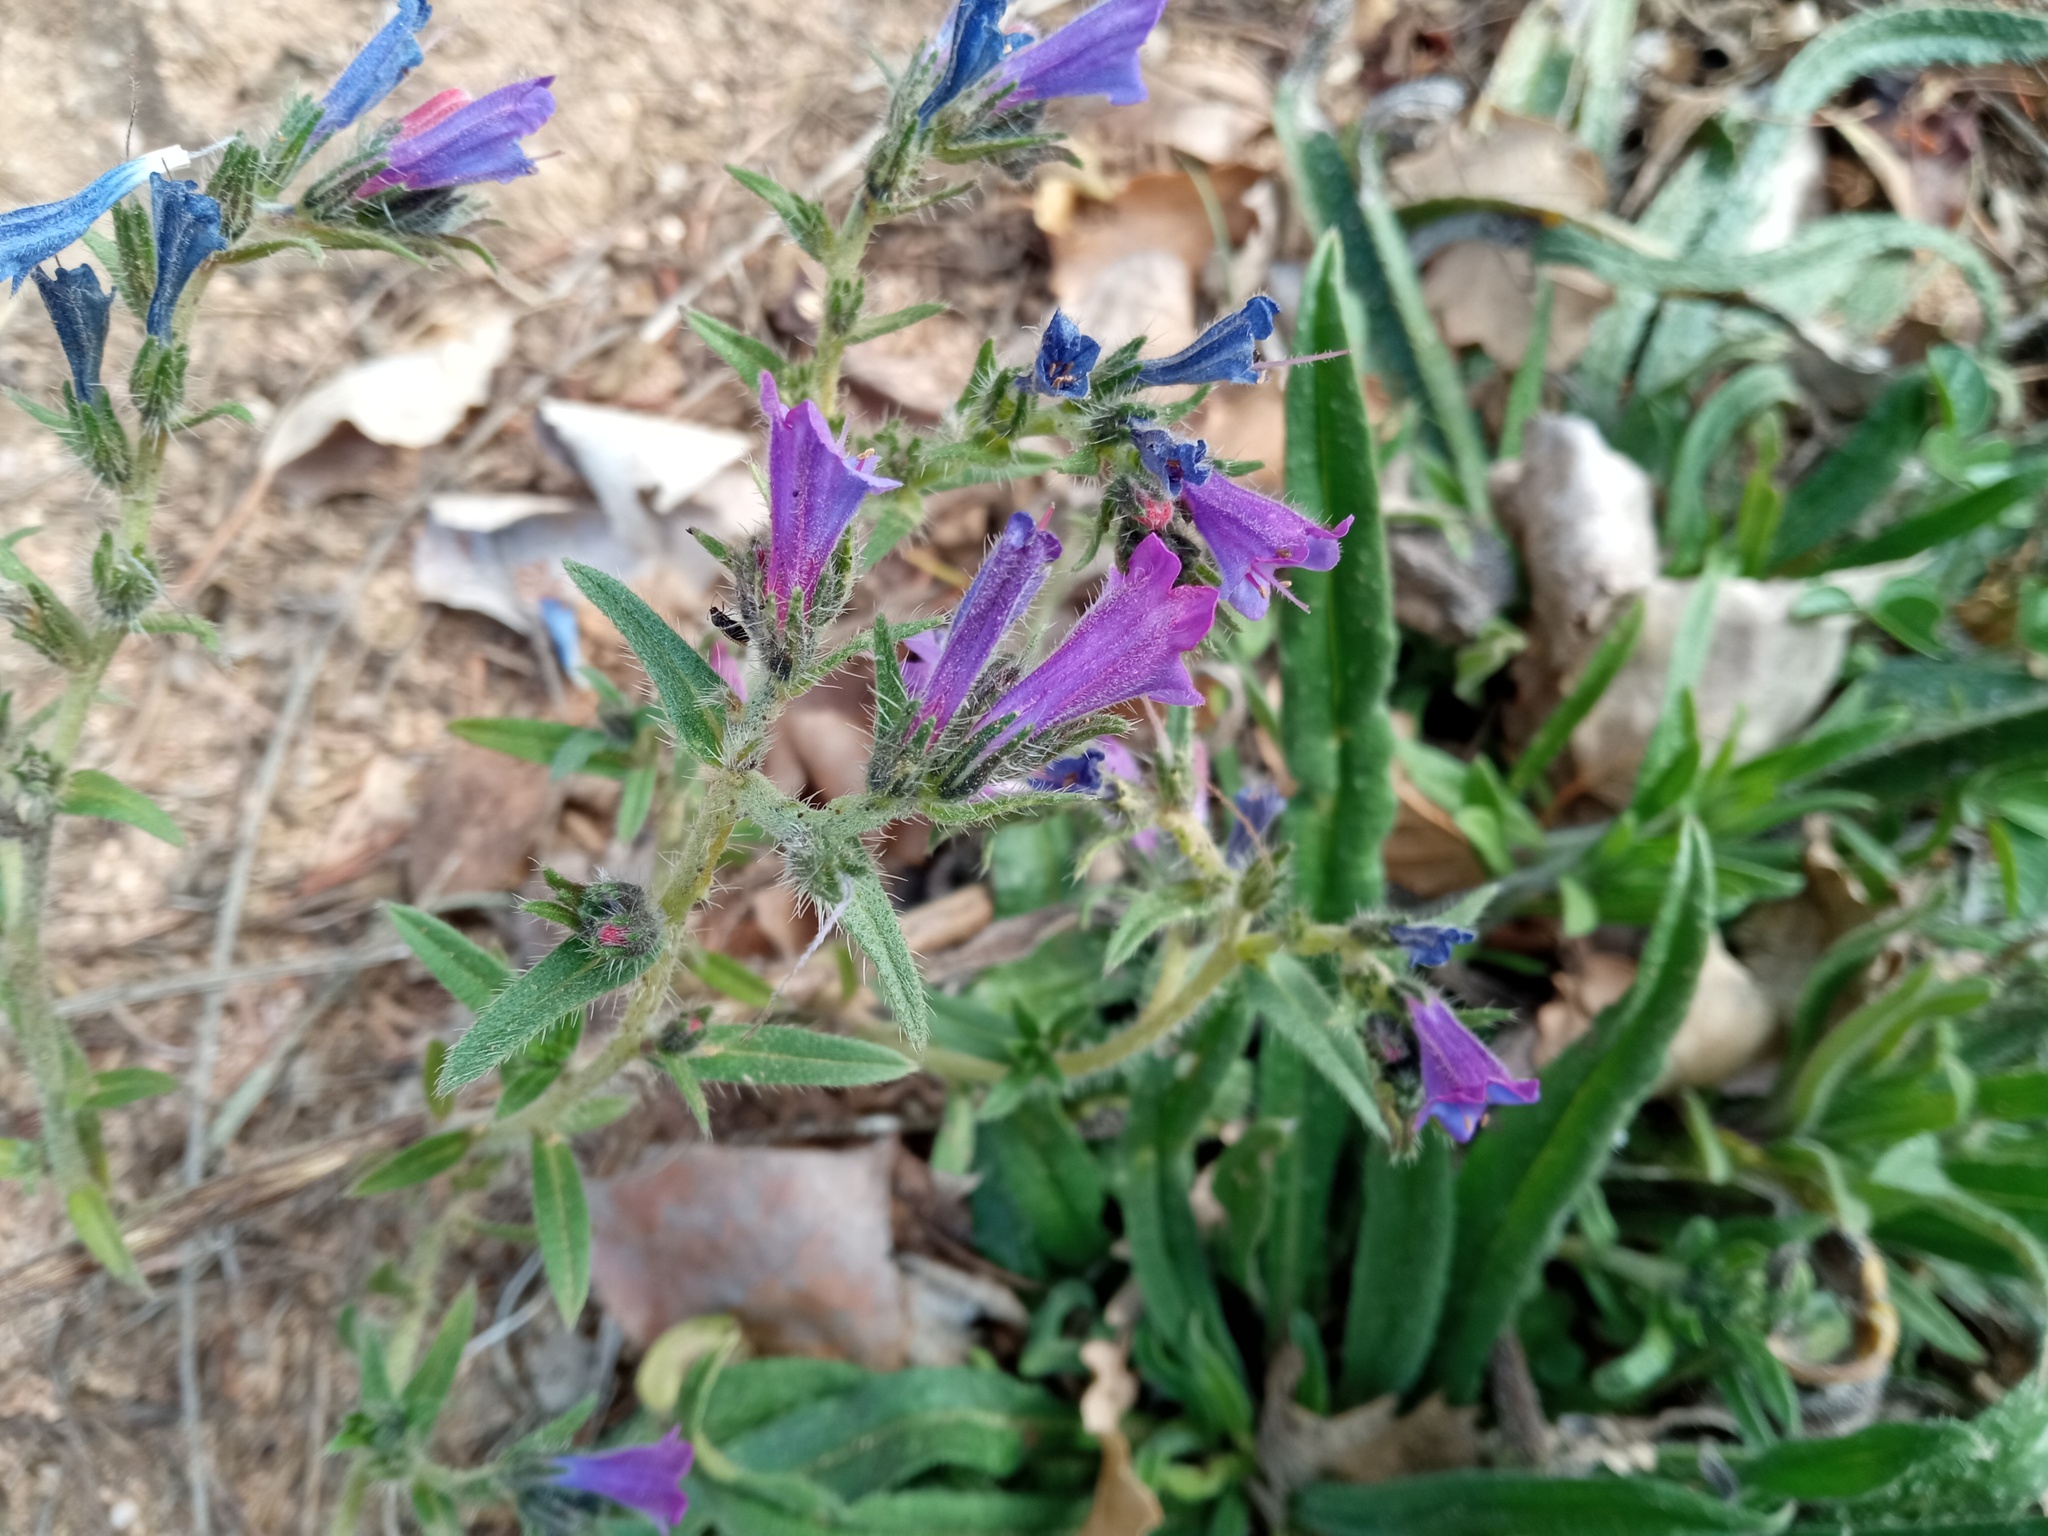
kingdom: Plantae
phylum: Tracheophyta
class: Magnoliopsida
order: Boraginales
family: Boraginaceae
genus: Echium
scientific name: Echium vulgare
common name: Common viper's bugloss
